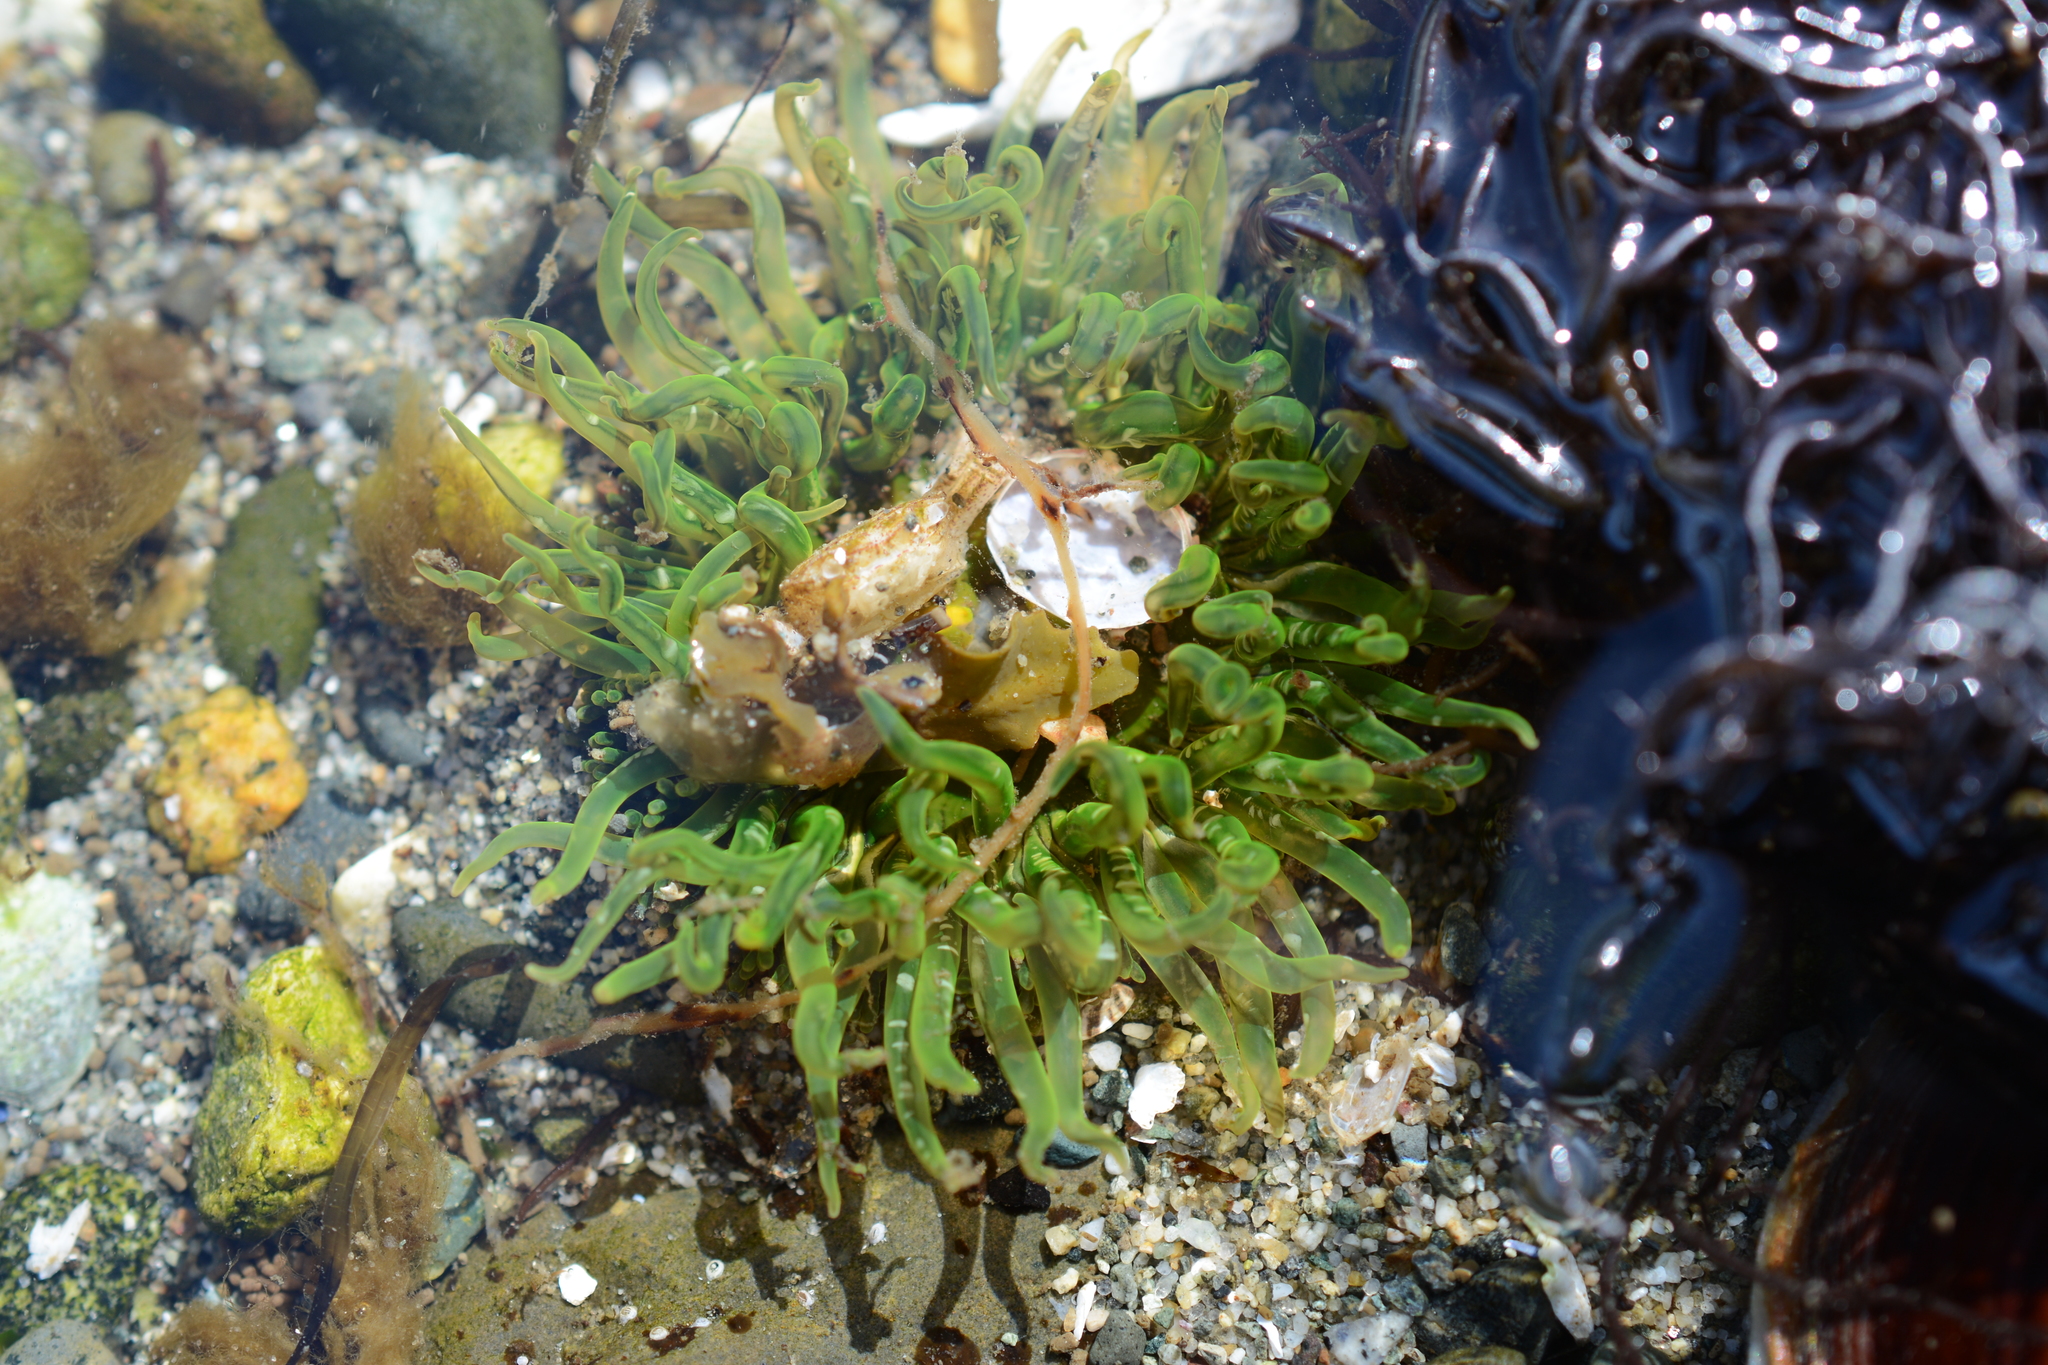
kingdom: Animalia
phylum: Cnidaria
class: Anthozoa
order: Actiniaria
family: Actiniidae
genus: Anthopleura
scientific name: Anthopleura artemisia
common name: Buried sea anemone
